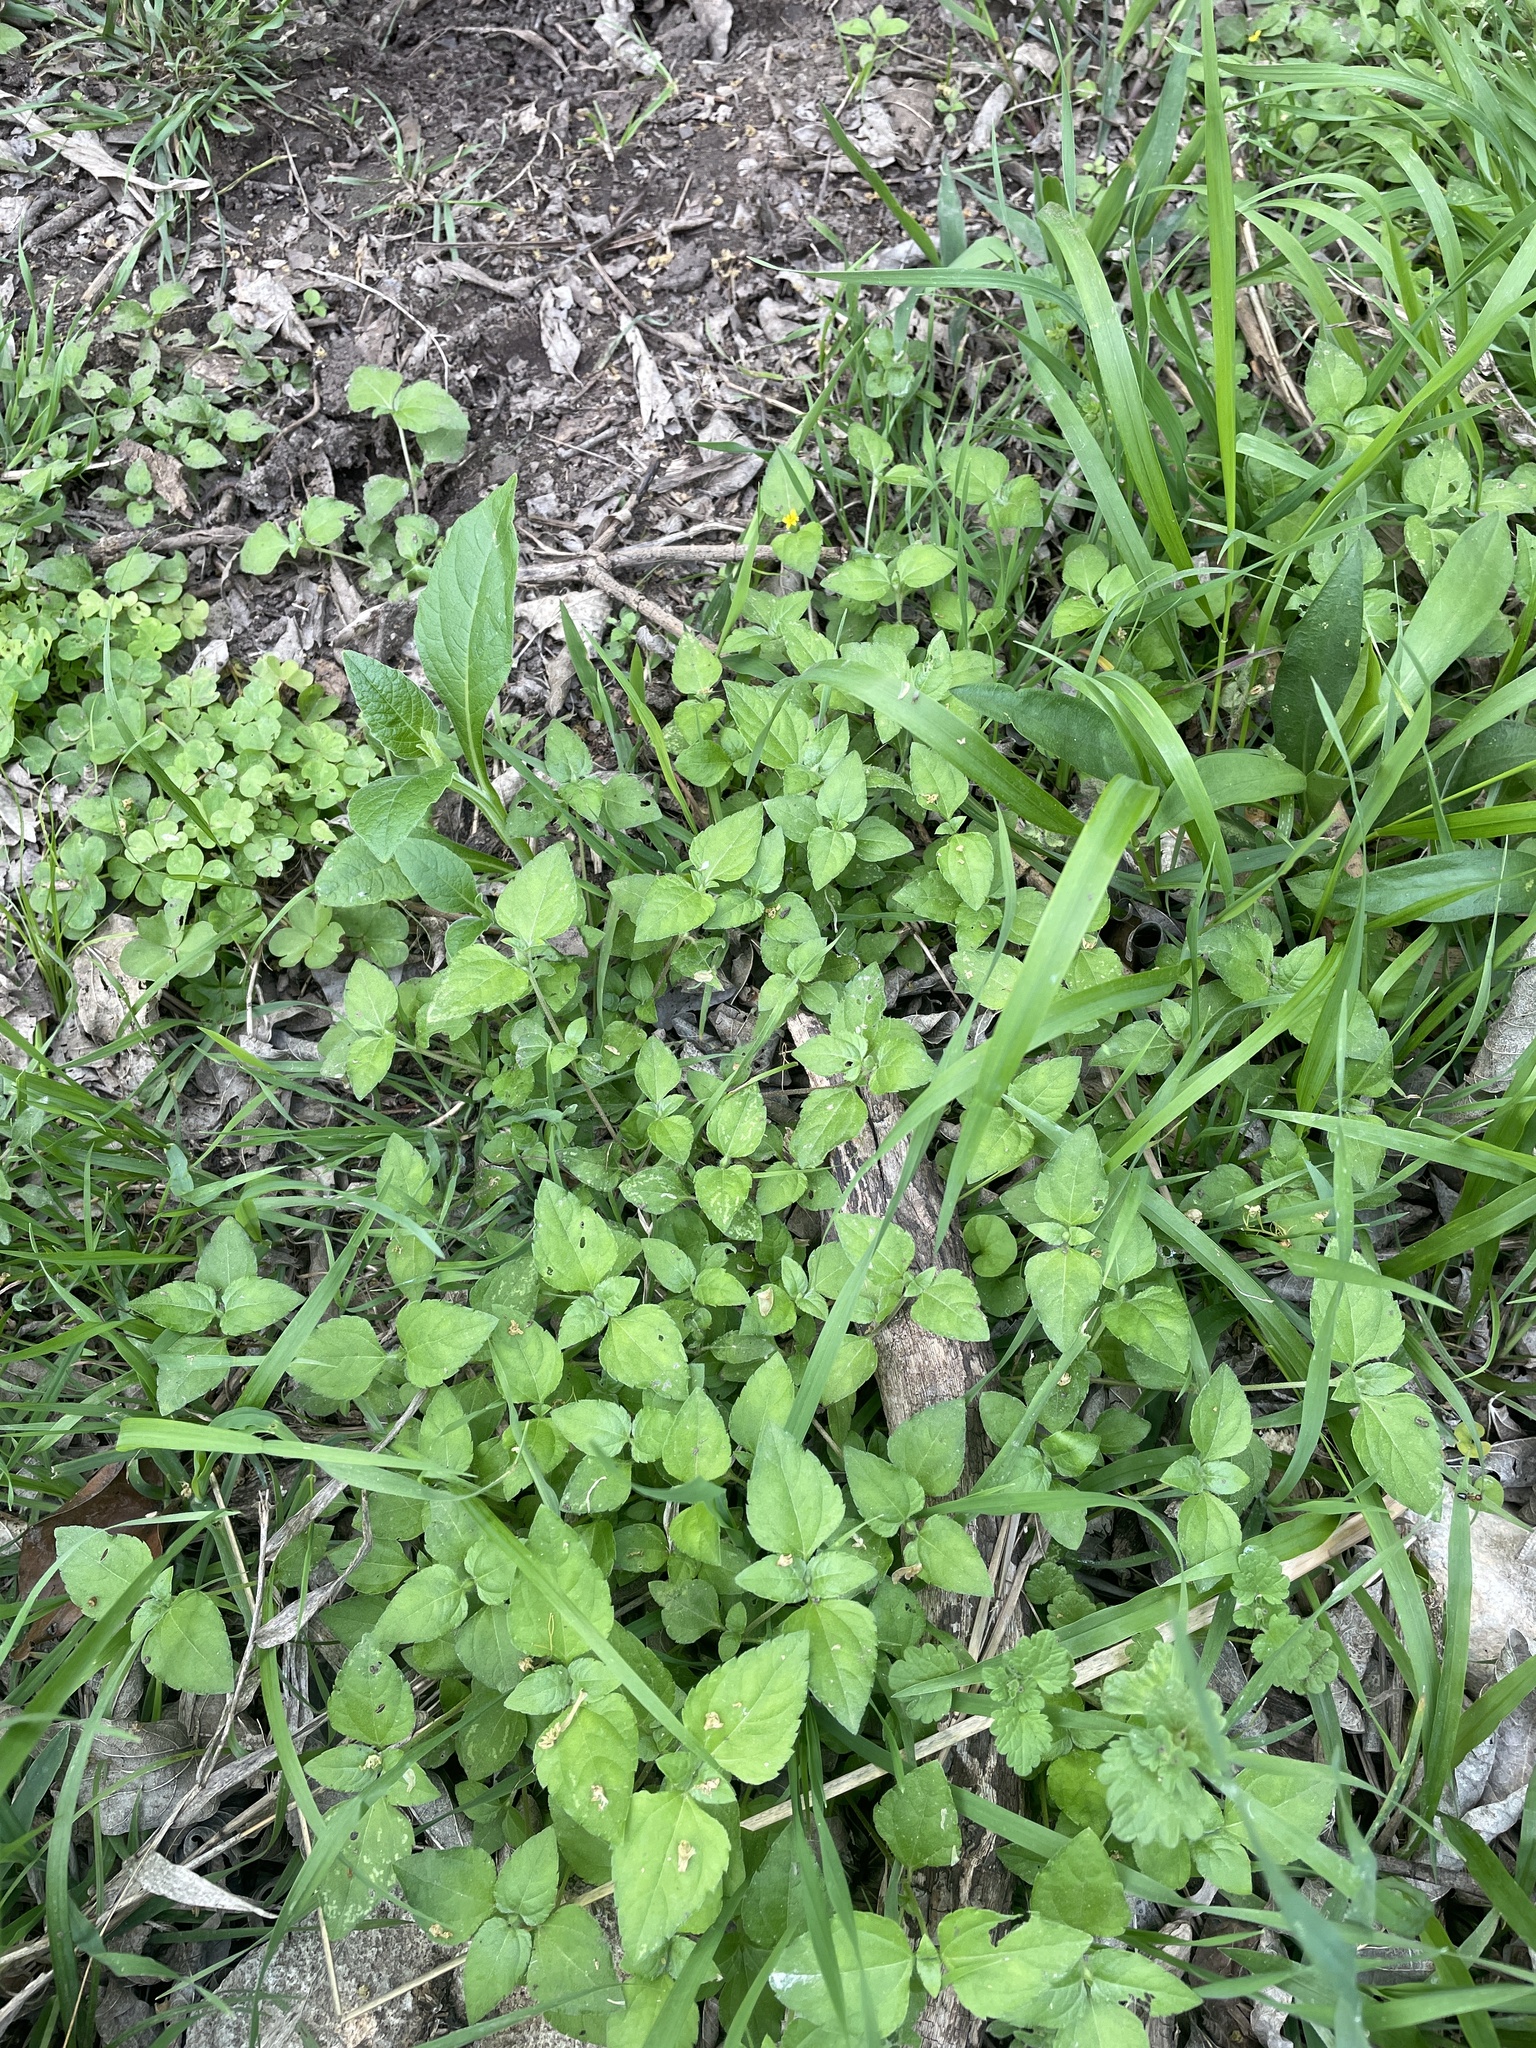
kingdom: Plantae
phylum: Tracheophyta
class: Magnoliopsida
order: Asterales
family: Asteraceae
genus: Calyptocarpus
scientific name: Calyptocarpus vialis
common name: Straggler daisy
